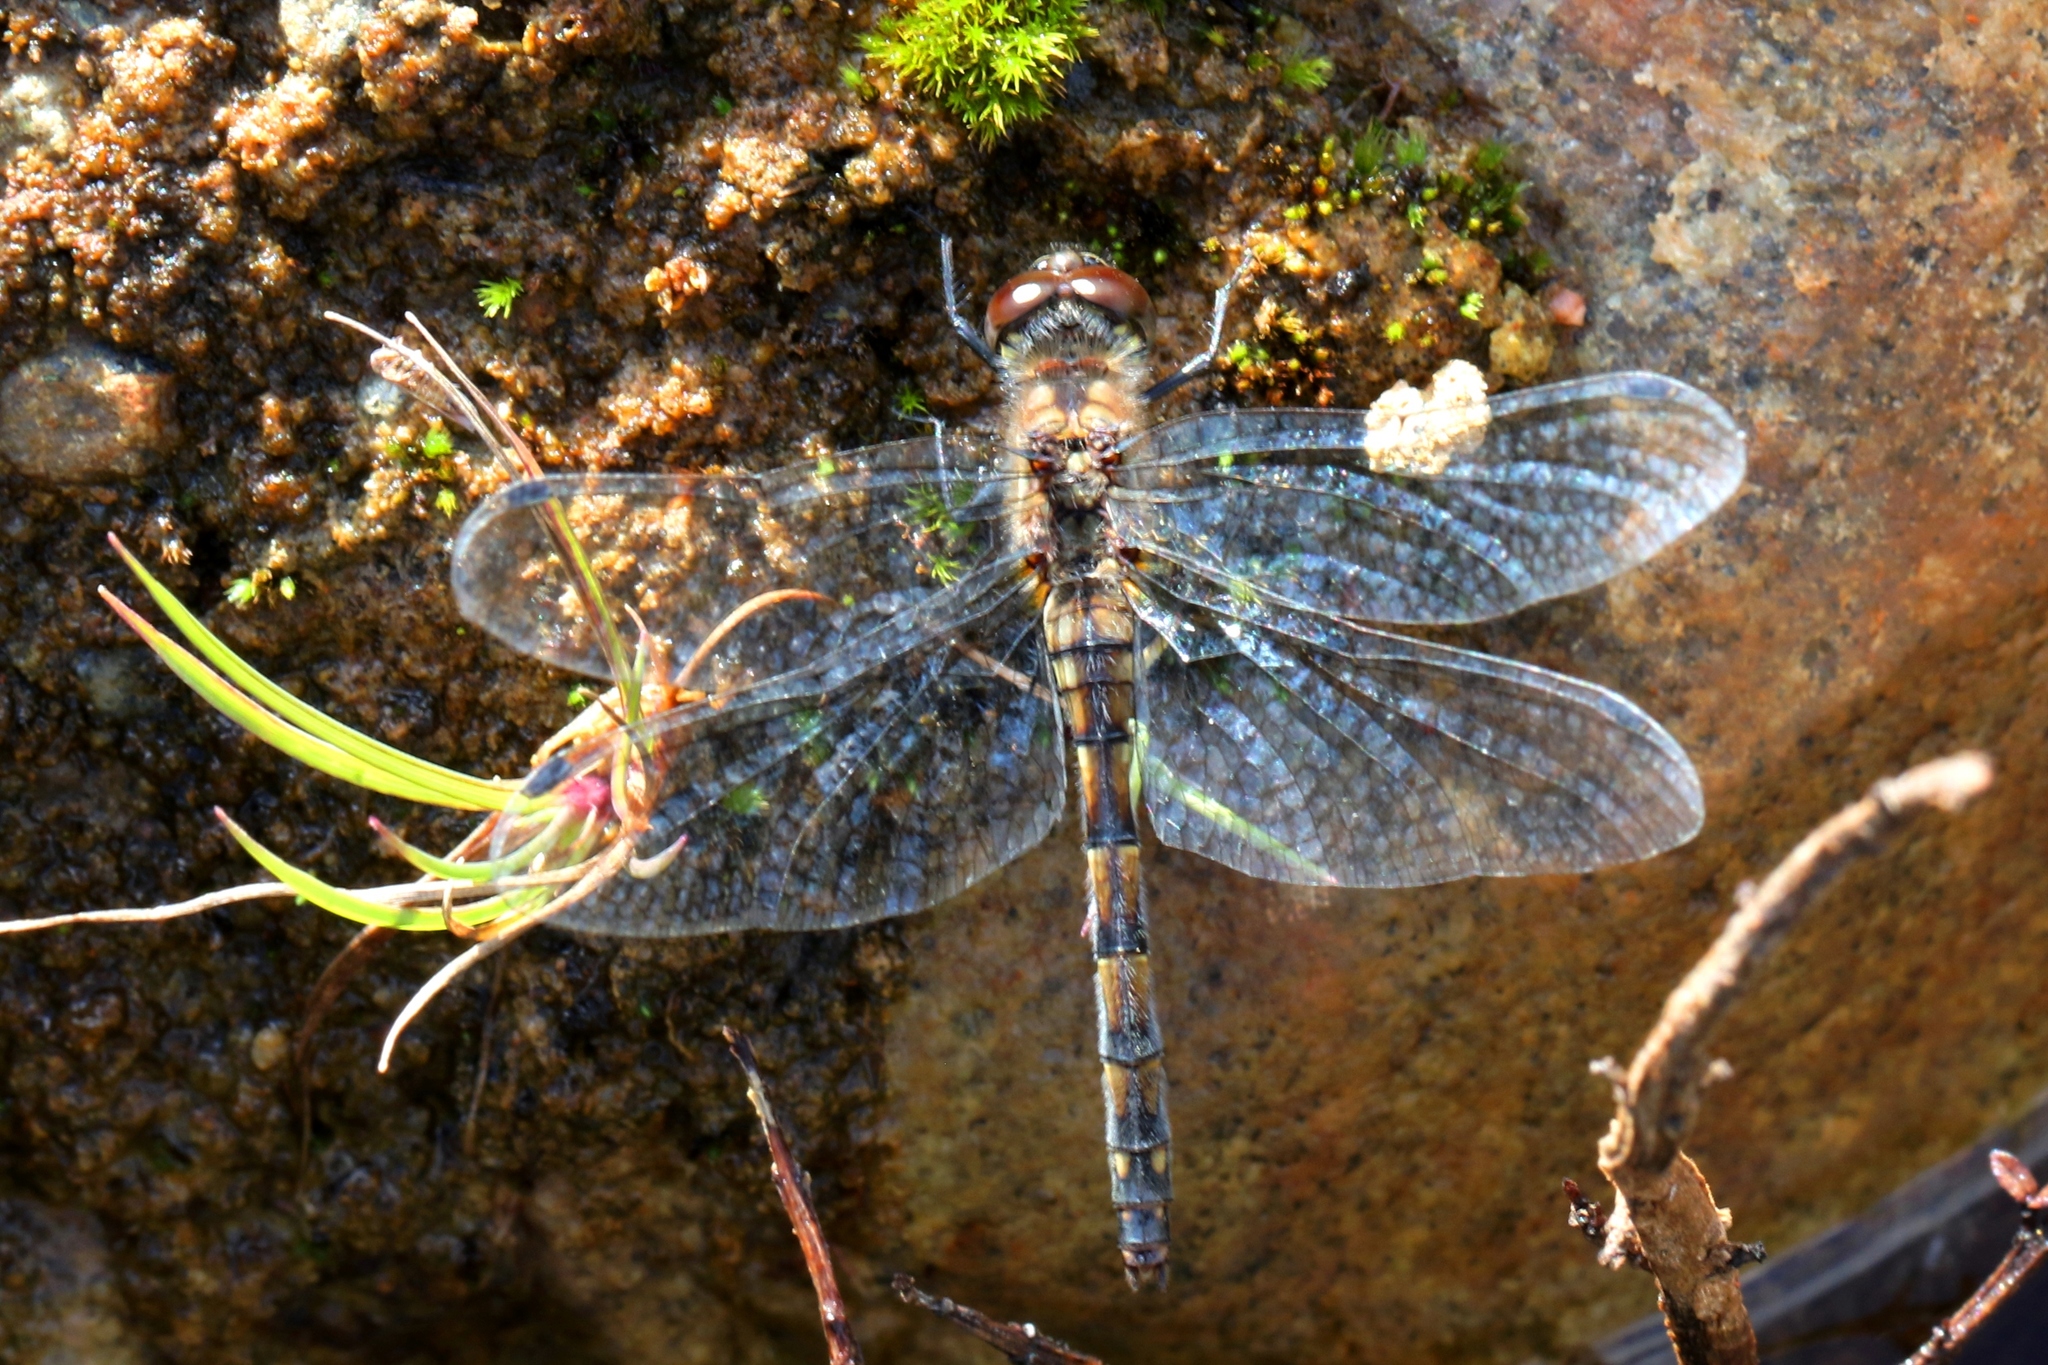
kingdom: Animalia
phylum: Arthropoda
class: Insecta
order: Odonata
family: Libellulidae
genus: Sympetrum
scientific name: Sympetrum danae
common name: Black darter
